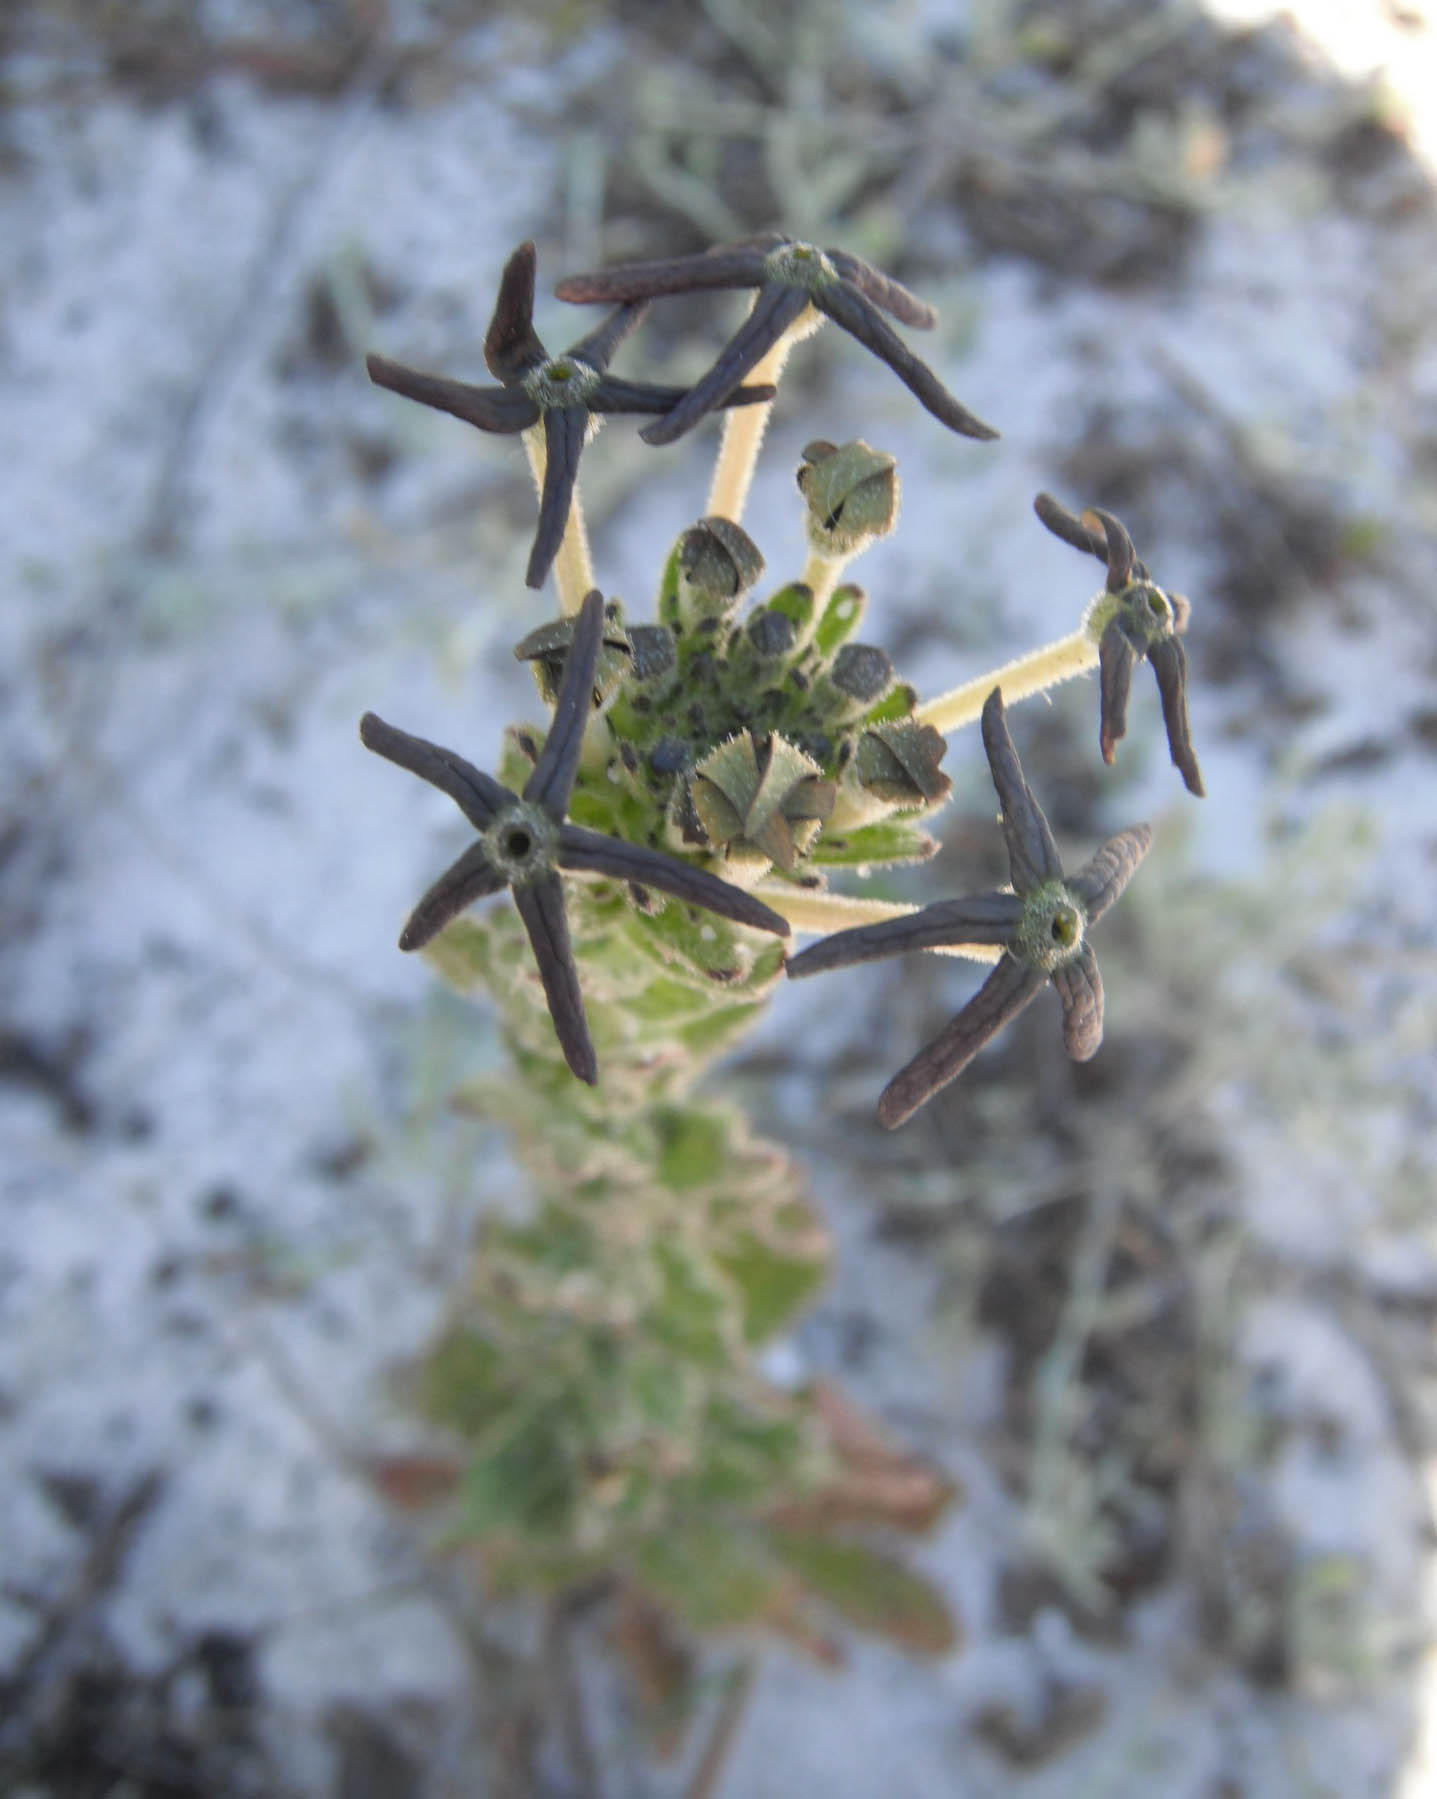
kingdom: Plantae
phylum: Tracheophyta
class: Magnoliopsida
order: Lamiales
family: Scrophulariaceae
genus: Lyperia
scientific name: Lyperia tristis
